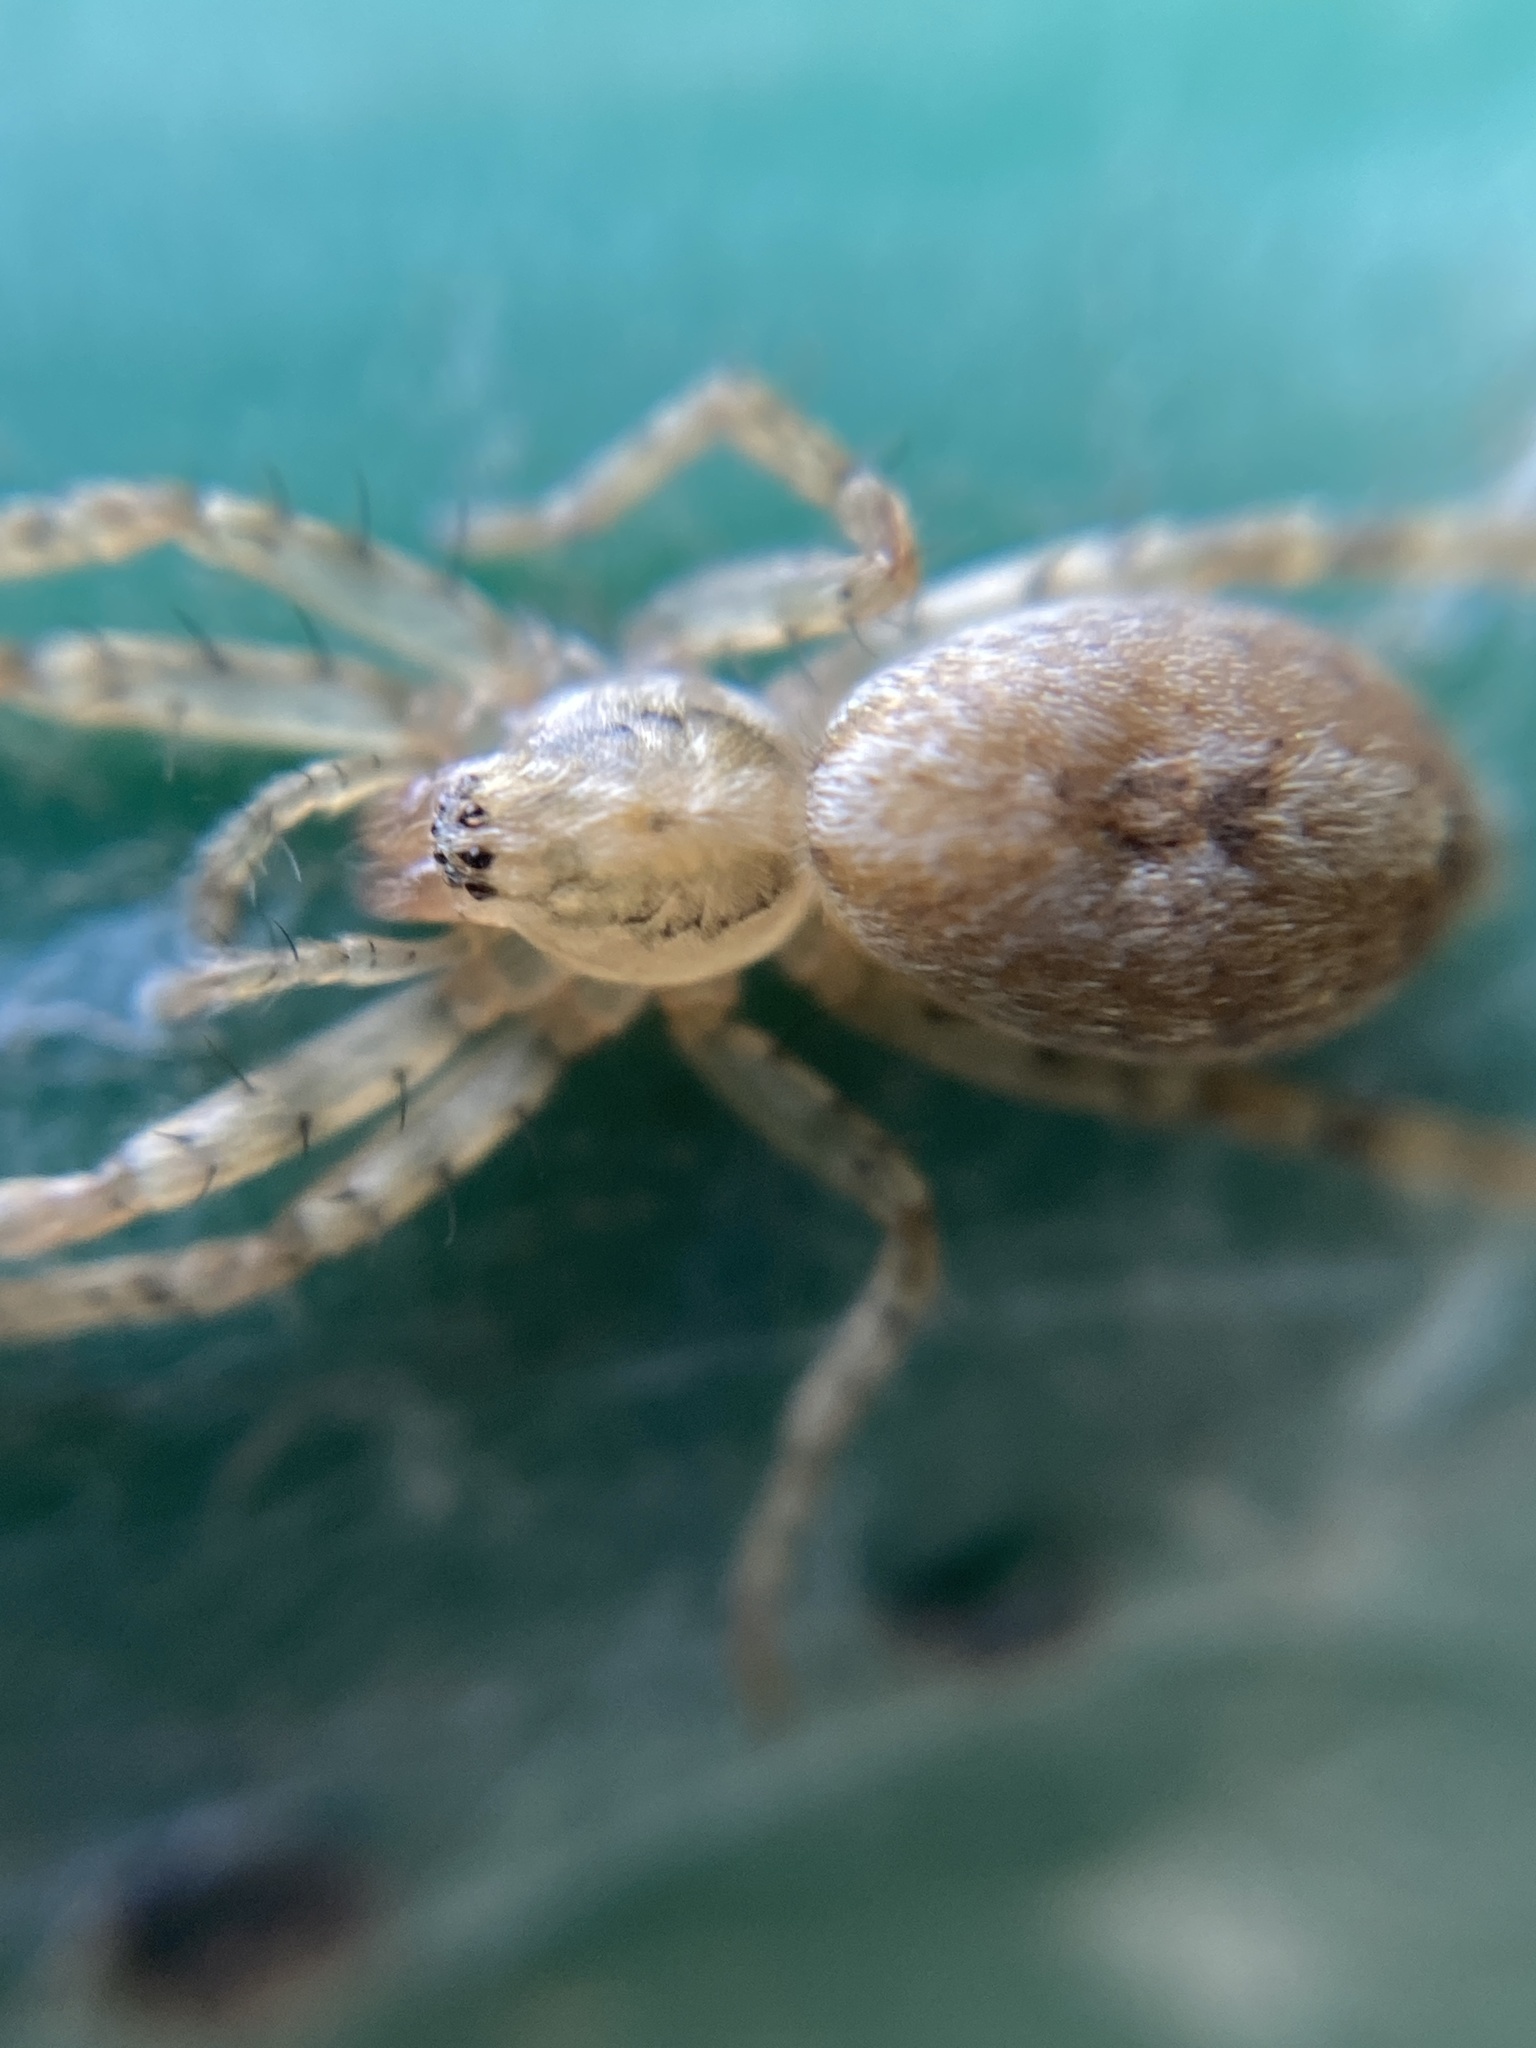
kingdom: Animalia
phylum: Arthropoda
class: Arachnida
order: Araneae
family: Anyphaenidae
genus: Anyphaena
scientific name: Anyphaena accentuata
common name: Buzzing spider
